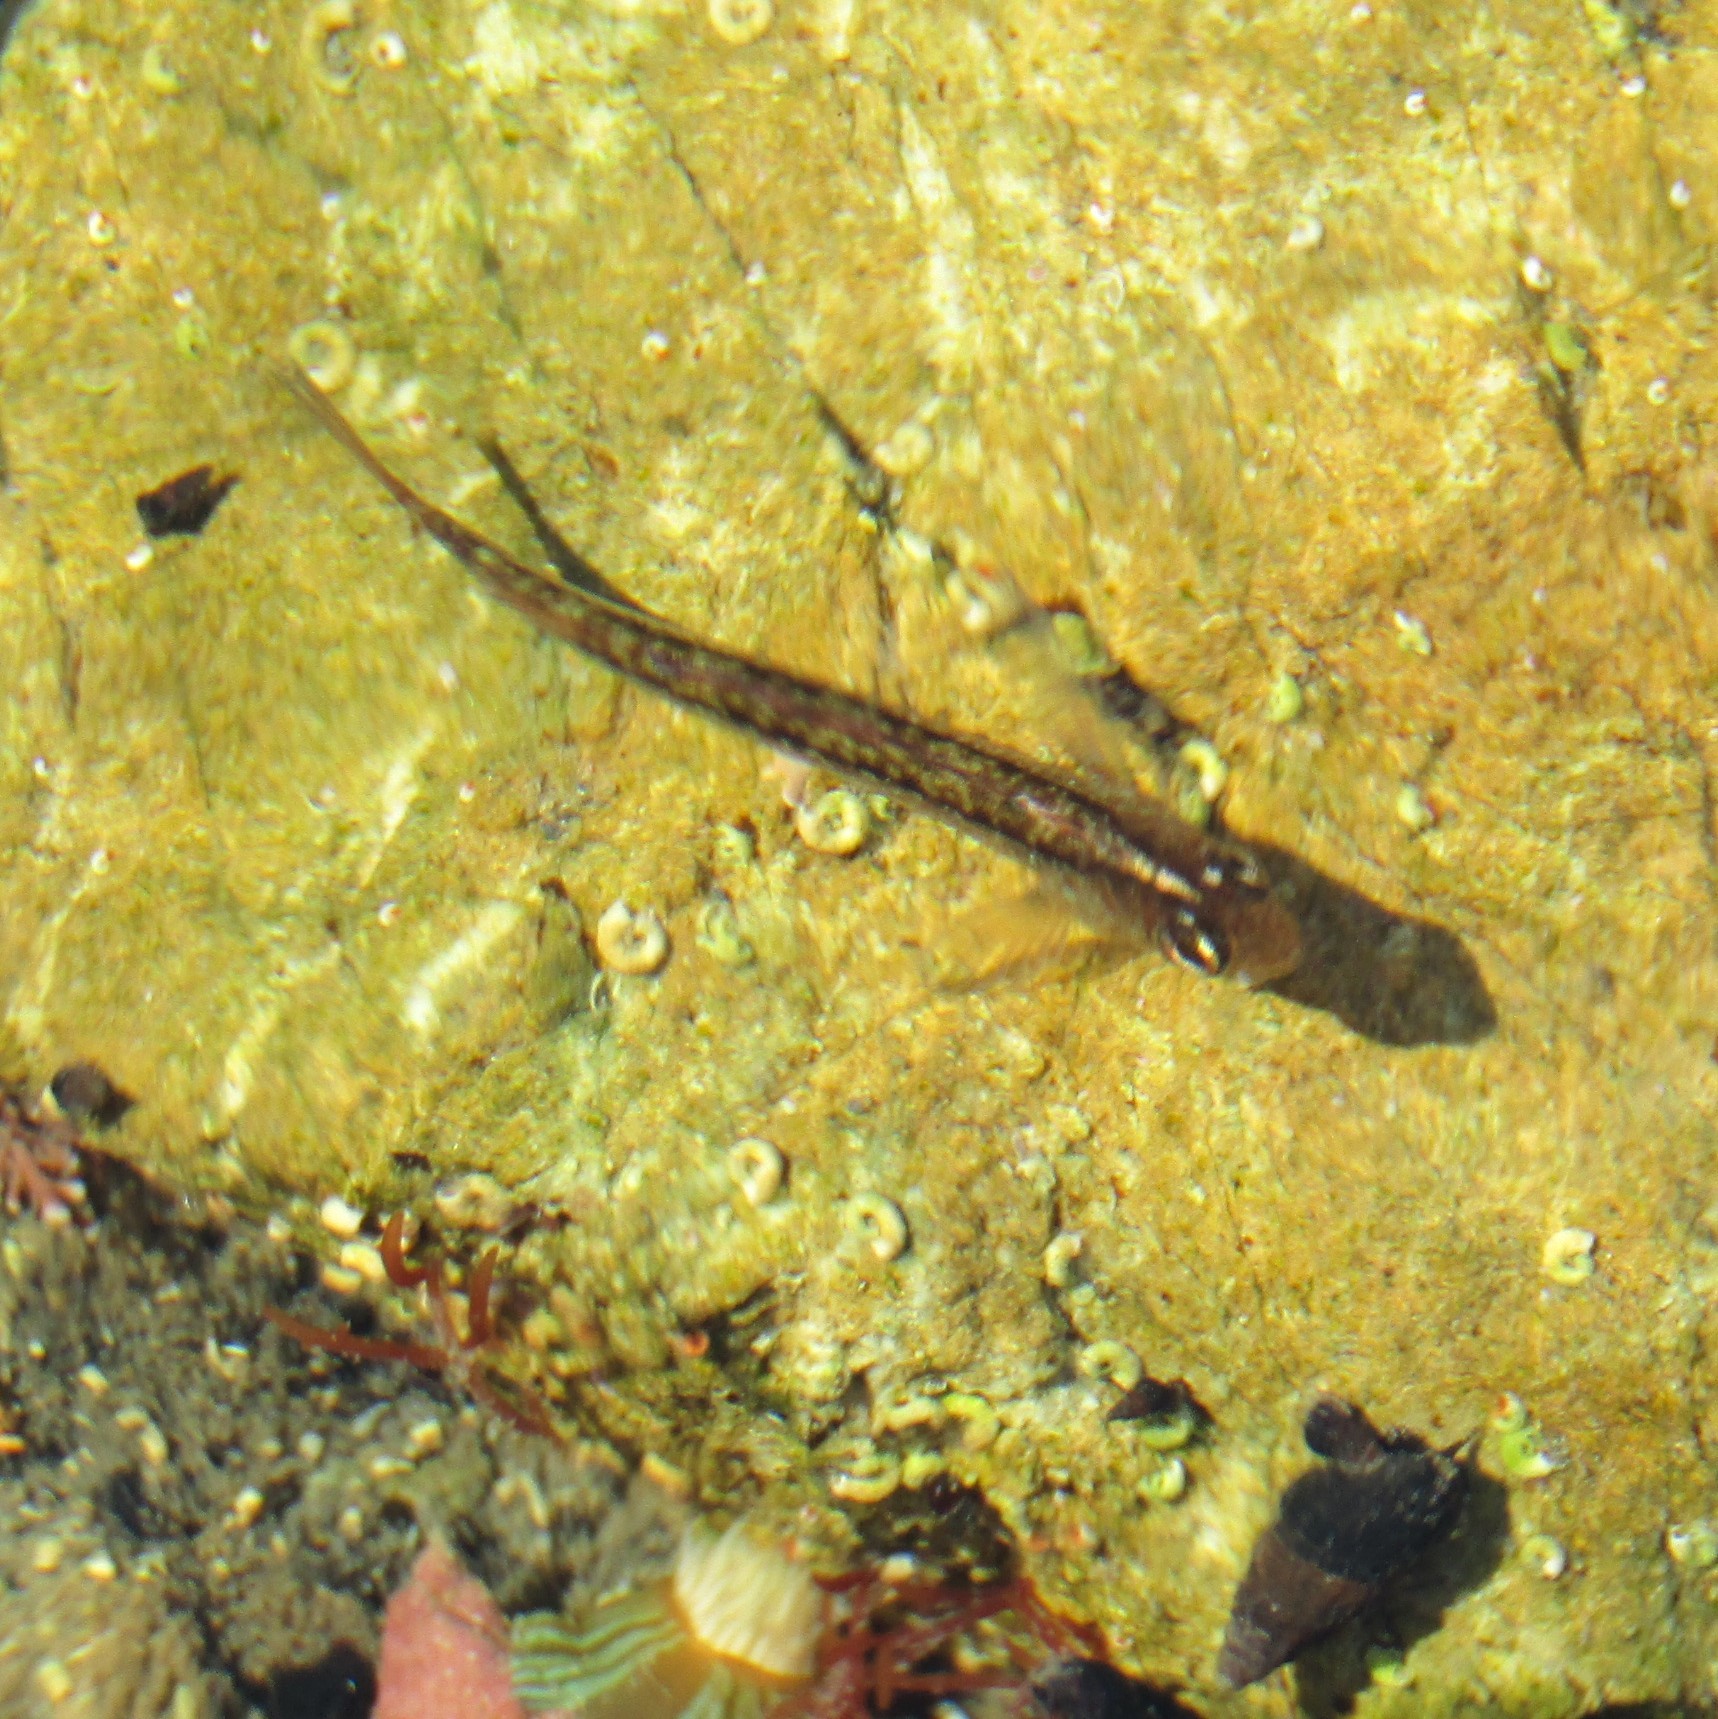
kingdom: Animalia
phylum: Chordata
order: Perciformes
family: Tripterygiidae
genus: Forsterygion
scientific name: Forsterygion lapillum
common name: Common triplefin
